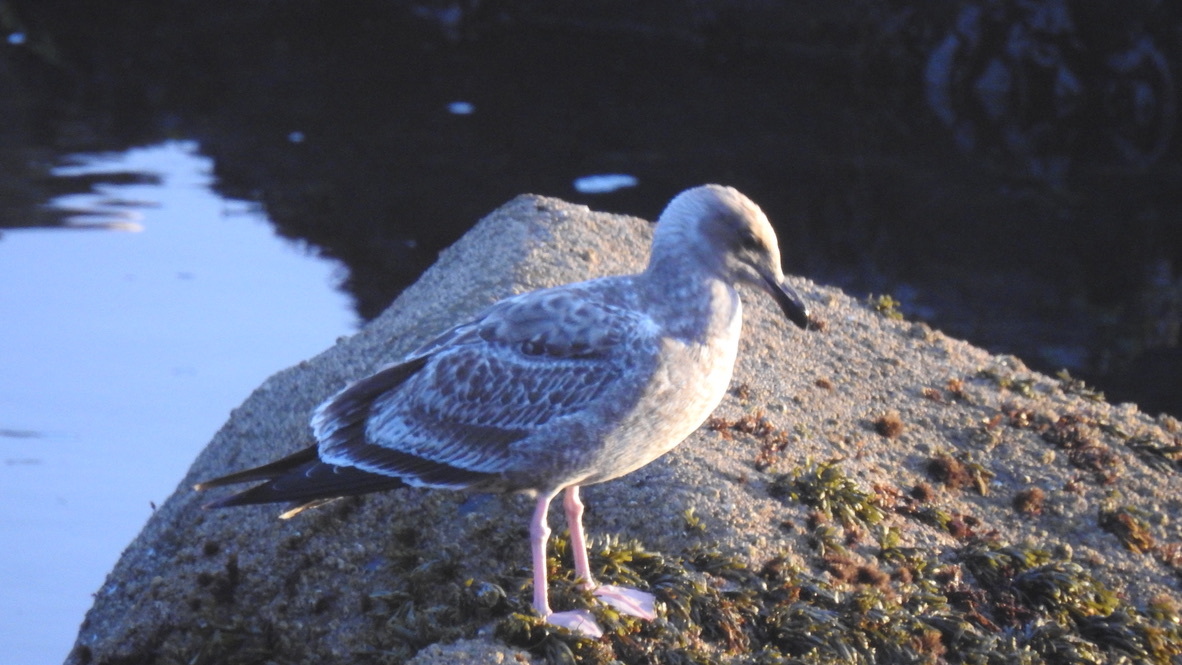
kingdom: Animalia
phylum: Chordata
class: Aves
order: Charadriiformes
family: Laridae
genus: Larus
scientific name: Larus occidentalis
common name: Western gull
